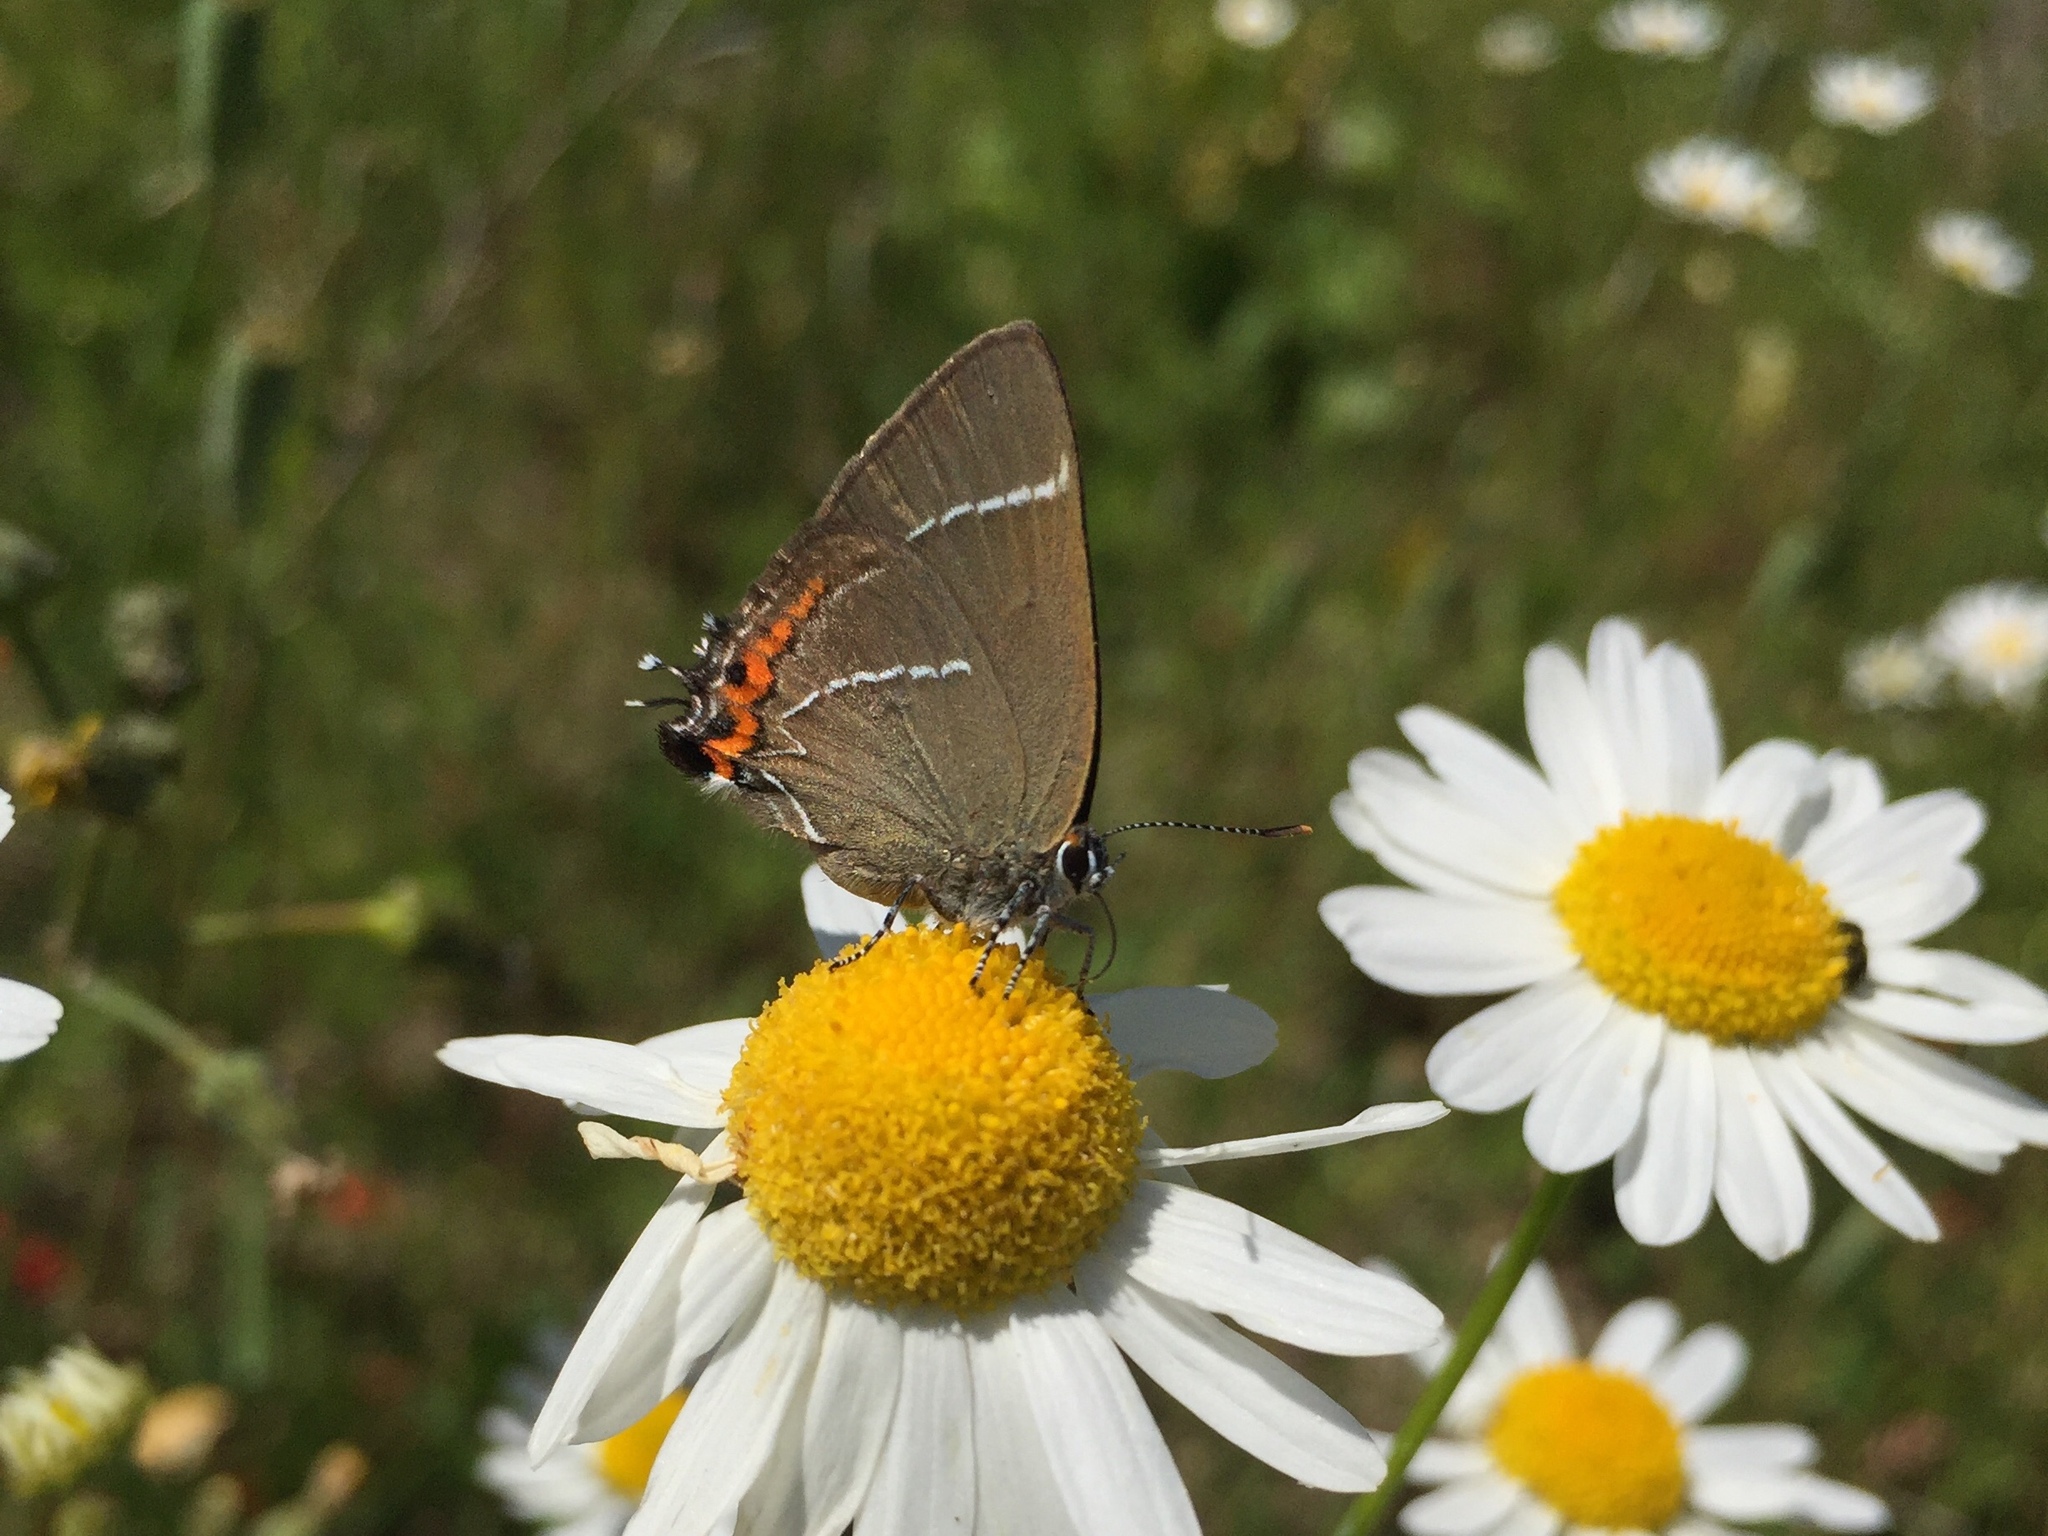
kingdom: Animalia
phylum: Arthropoda
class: Insecta
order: Lepidoptera
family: Lycaenidae
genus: Satyrium
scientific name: Satyrium w-album
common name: White-letter hairstreak
